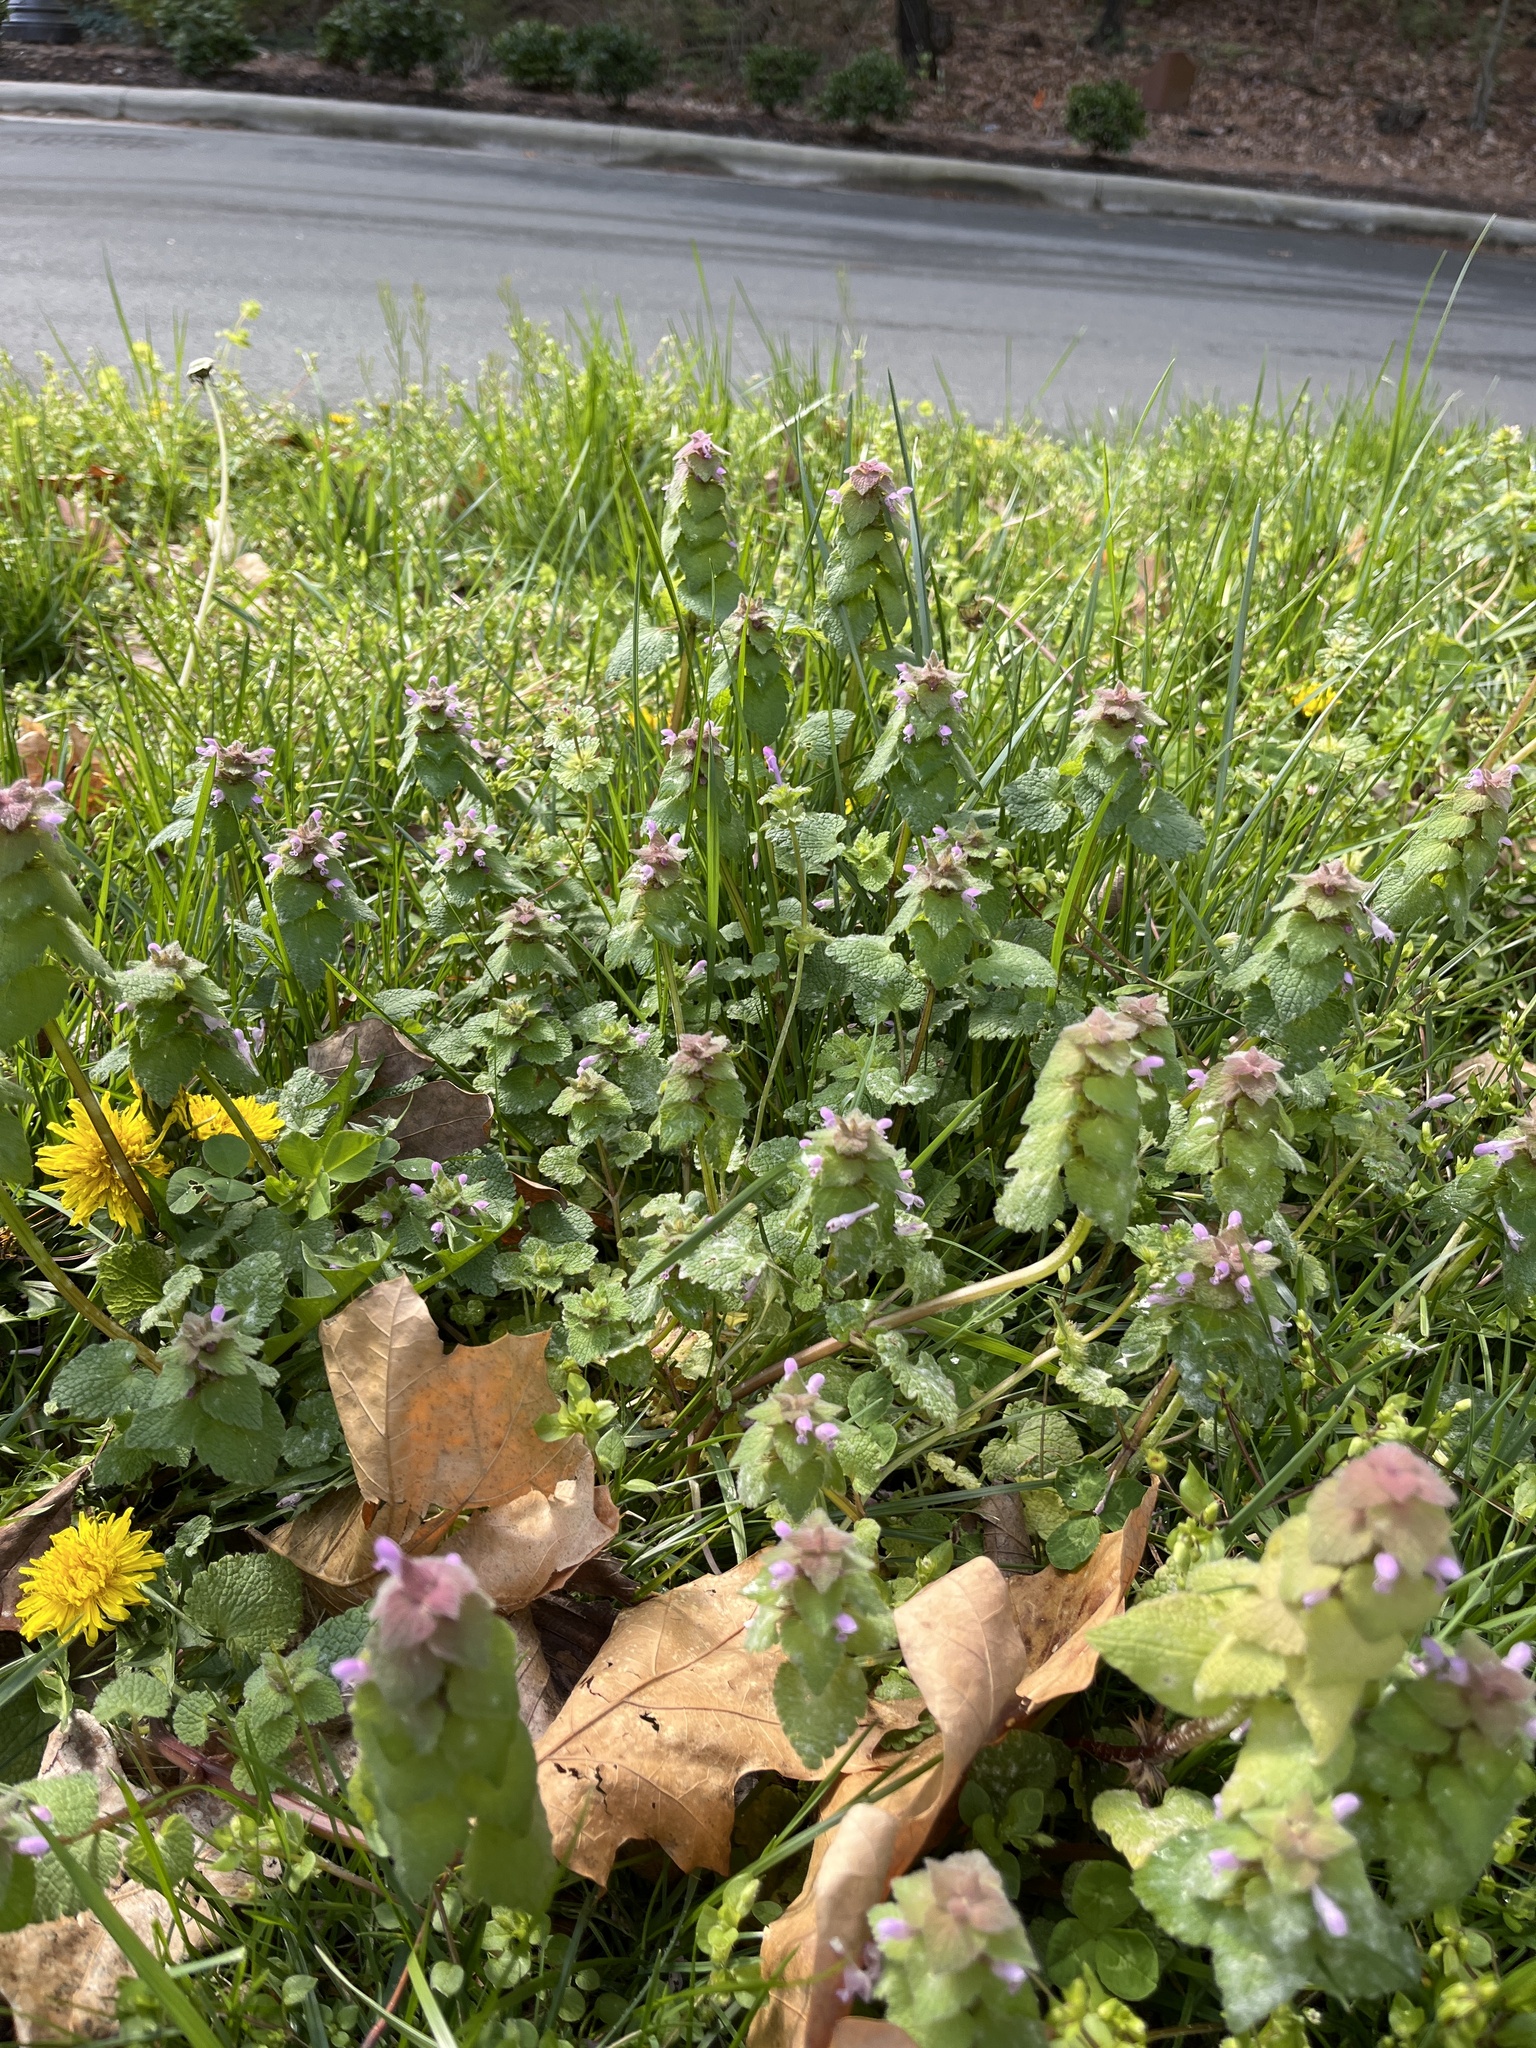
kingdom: Plantae
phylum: Tracheophyta
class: Magnoliopsida
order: Lamiales
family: Lamiaceae
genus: Lamium
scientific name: Lamium purpureum
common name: Red dead-nettle
